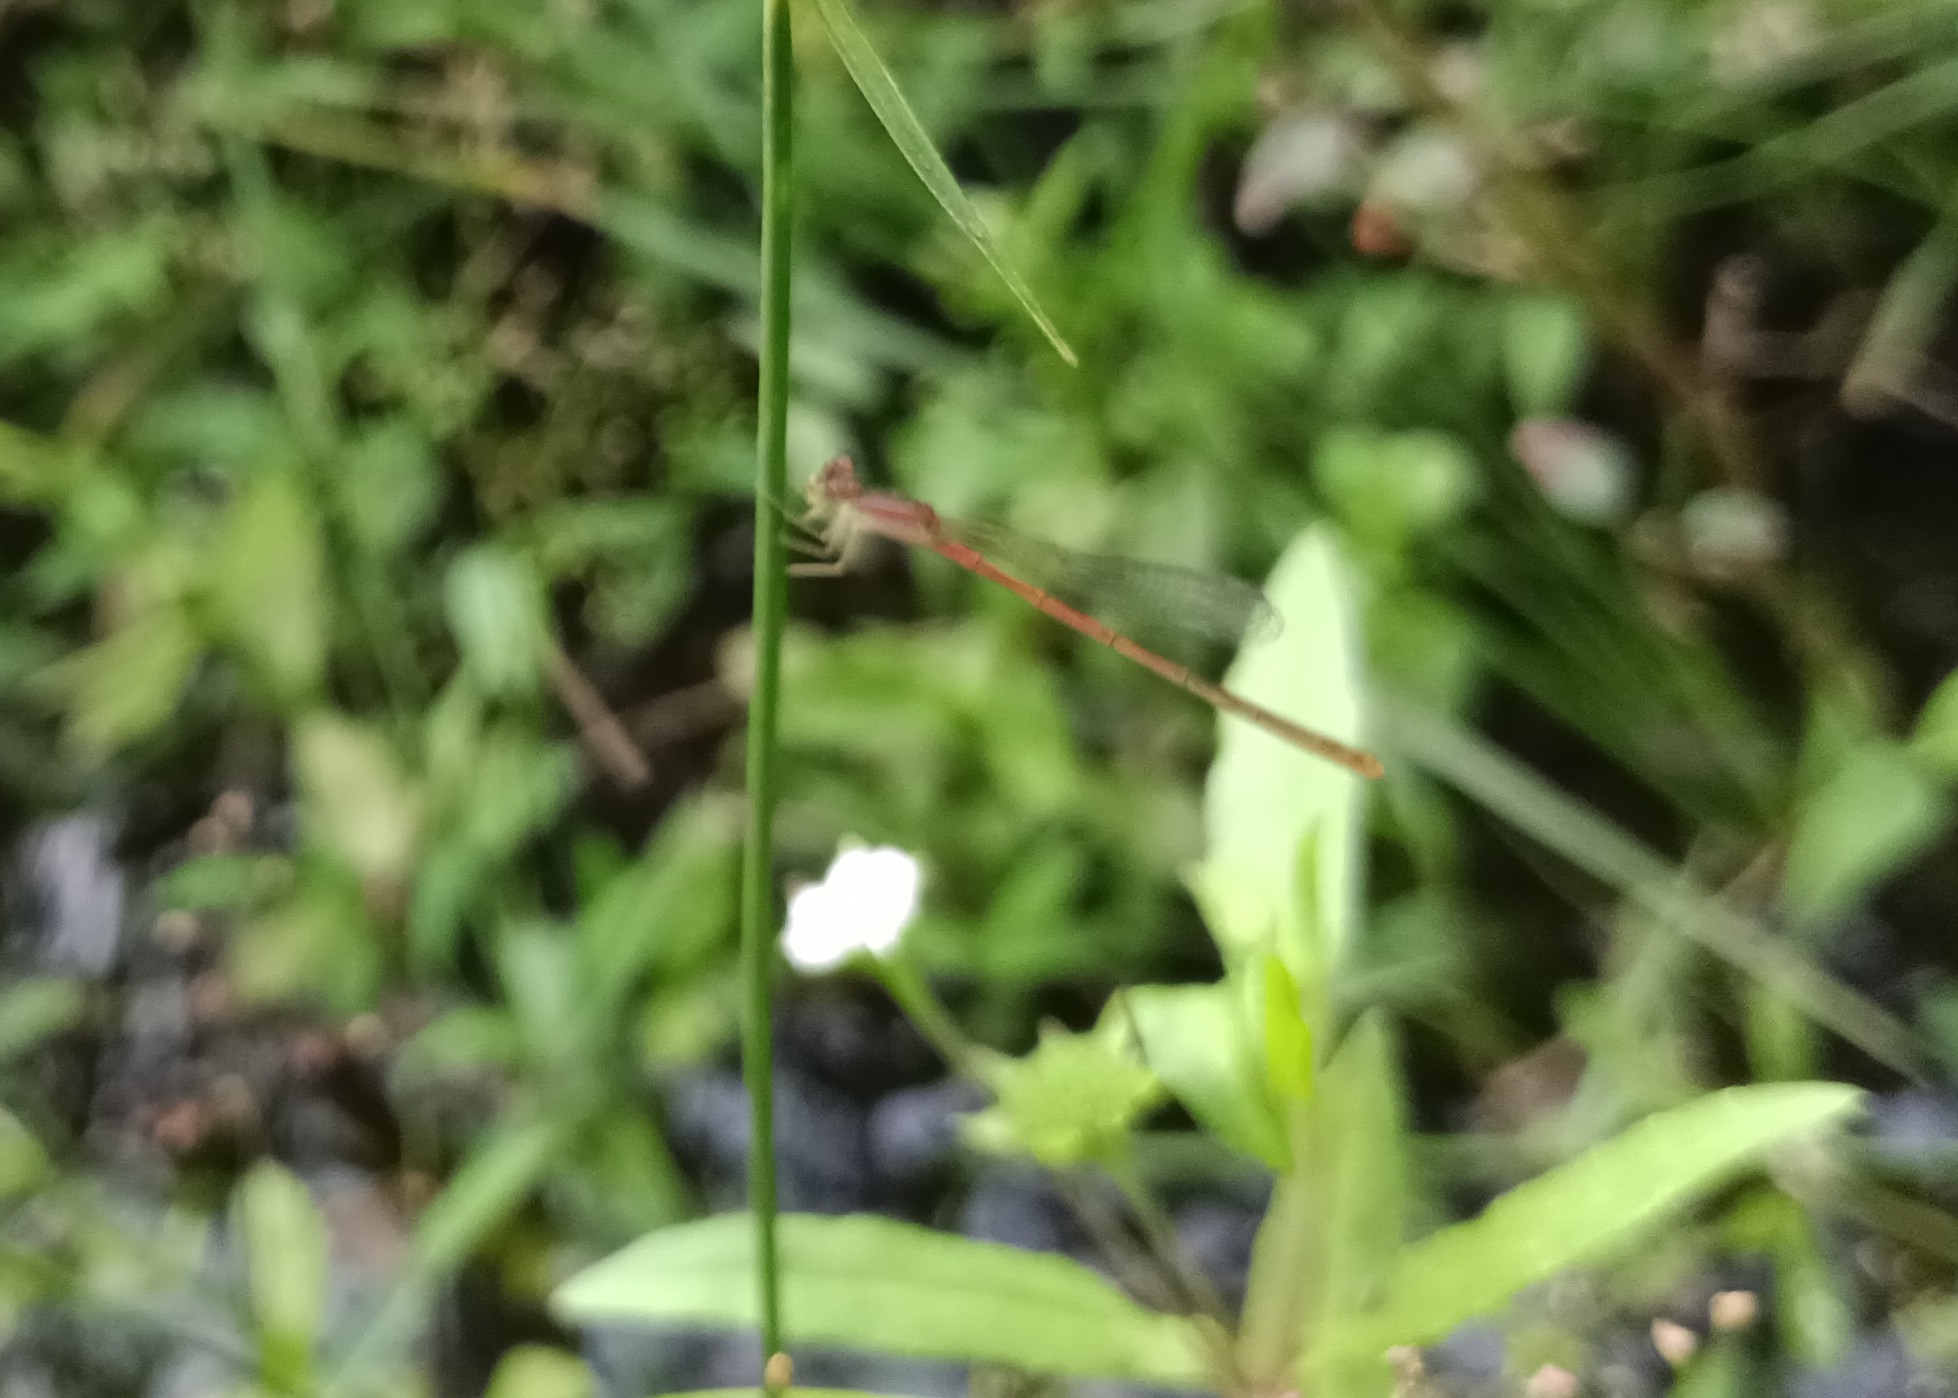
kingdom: Animalia
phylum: Arthropoda
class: Insecta
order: Odonata
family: Coenagrionidae
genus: Agriocnemis
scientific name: Agriocnemis pygmaea
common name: Pygmy wisp
